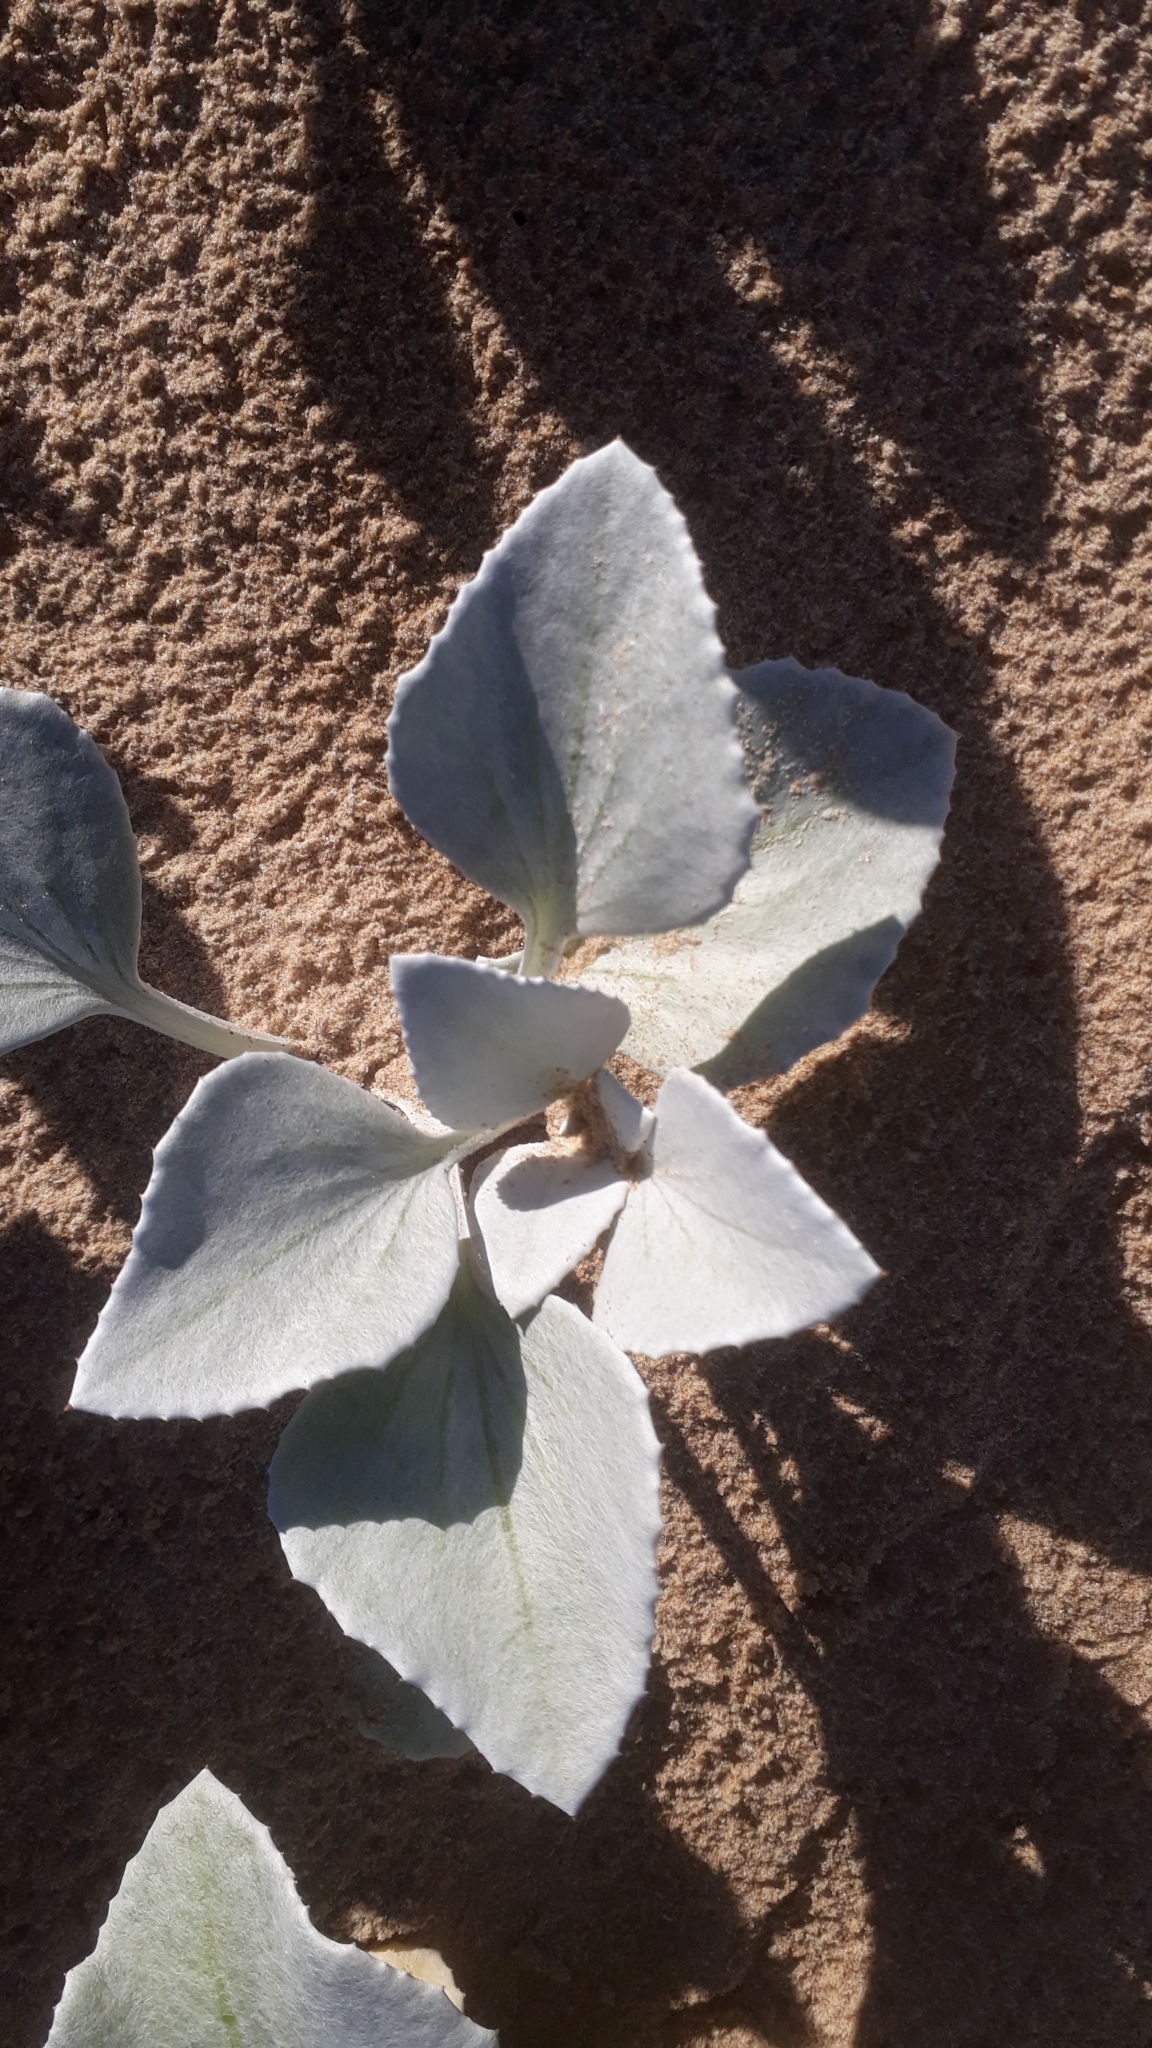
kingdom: Plantae
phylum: Tracheophyta
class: Magnoliopsida
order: Asterales
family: Asteraceae
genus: Arctotheca
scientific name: Arctotheca populifolia
